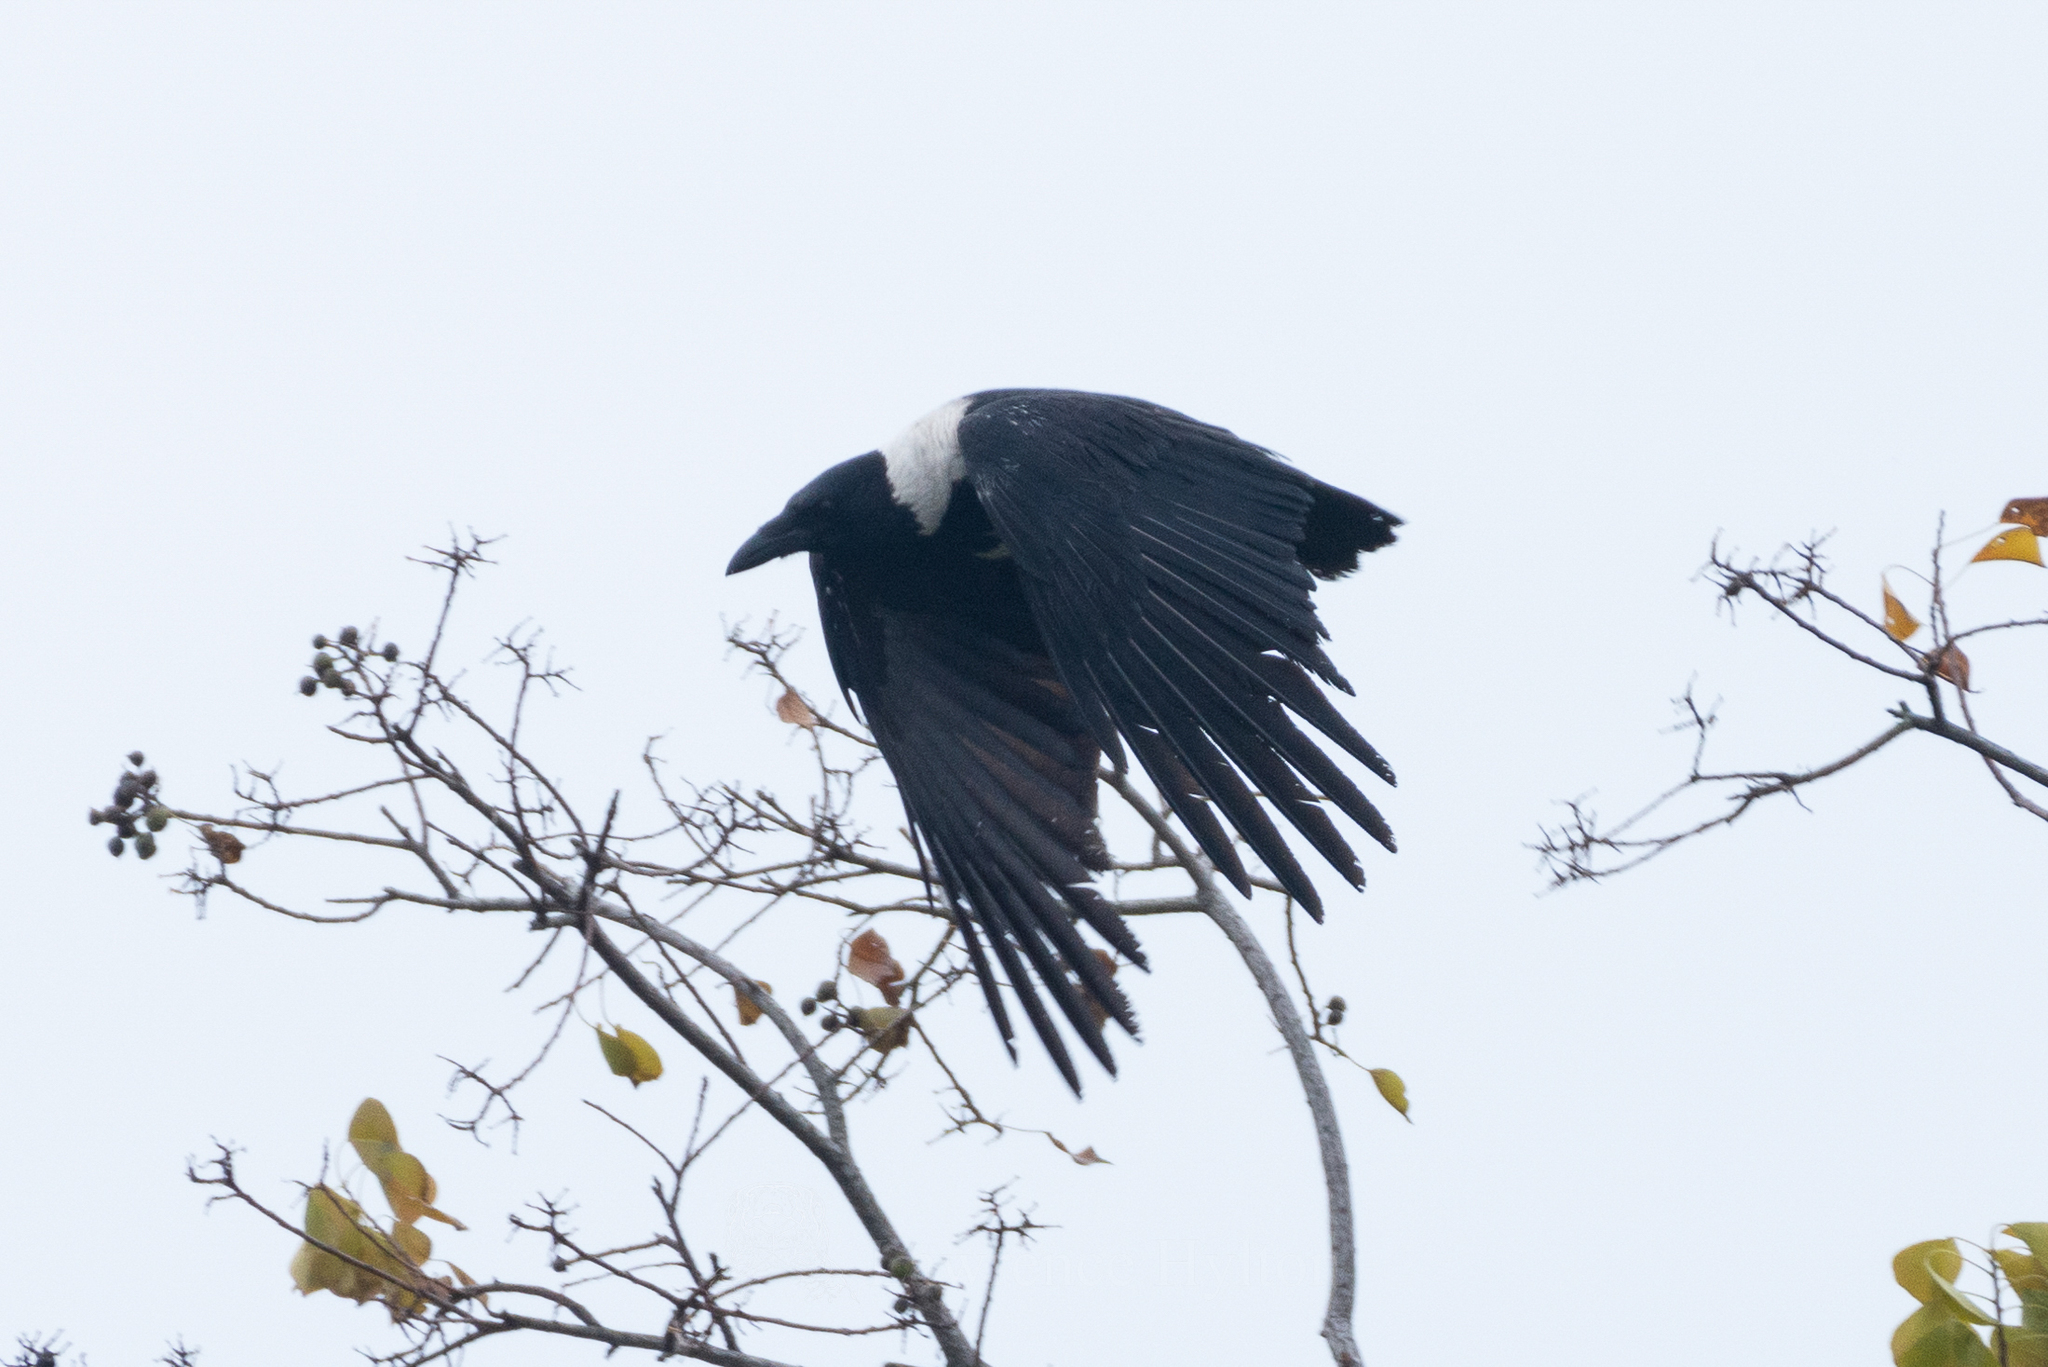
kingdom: Animalia
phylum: Chordata
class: Aves
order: Passeriformes
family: Corvidae
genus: Corvus
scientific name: Corvus pectoralis
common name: Collared crow
